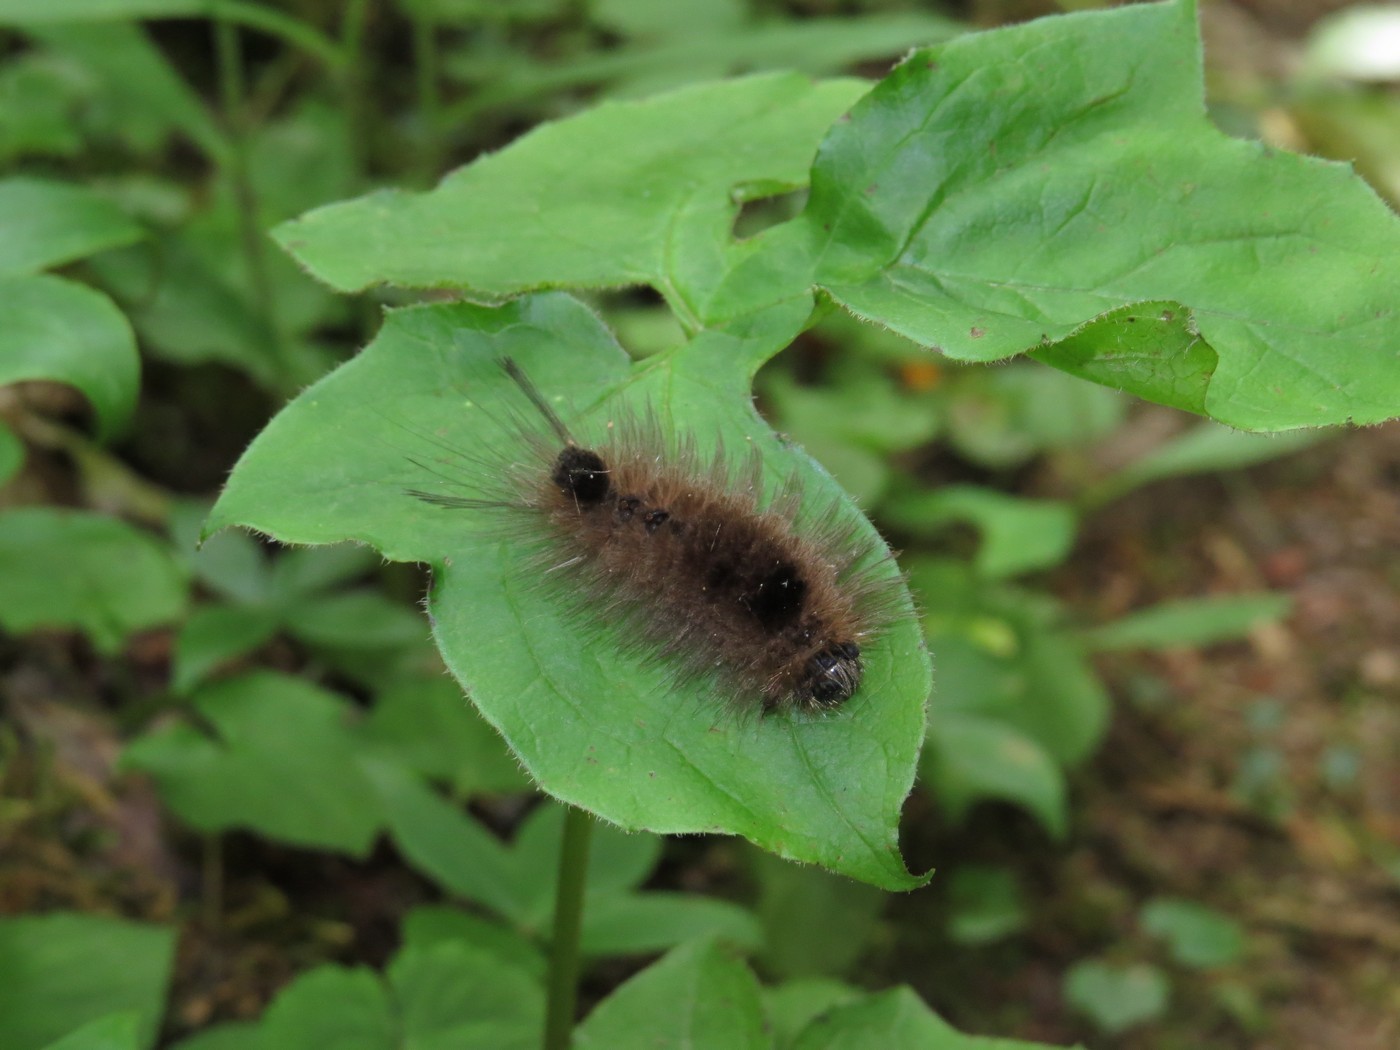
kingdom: Animalia
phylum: Arthropoda
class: Insecta
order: Lepidoptera
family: Erebidae
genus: Dasychira
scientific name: Dasychira obliquata
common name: Streaked tussock moth
